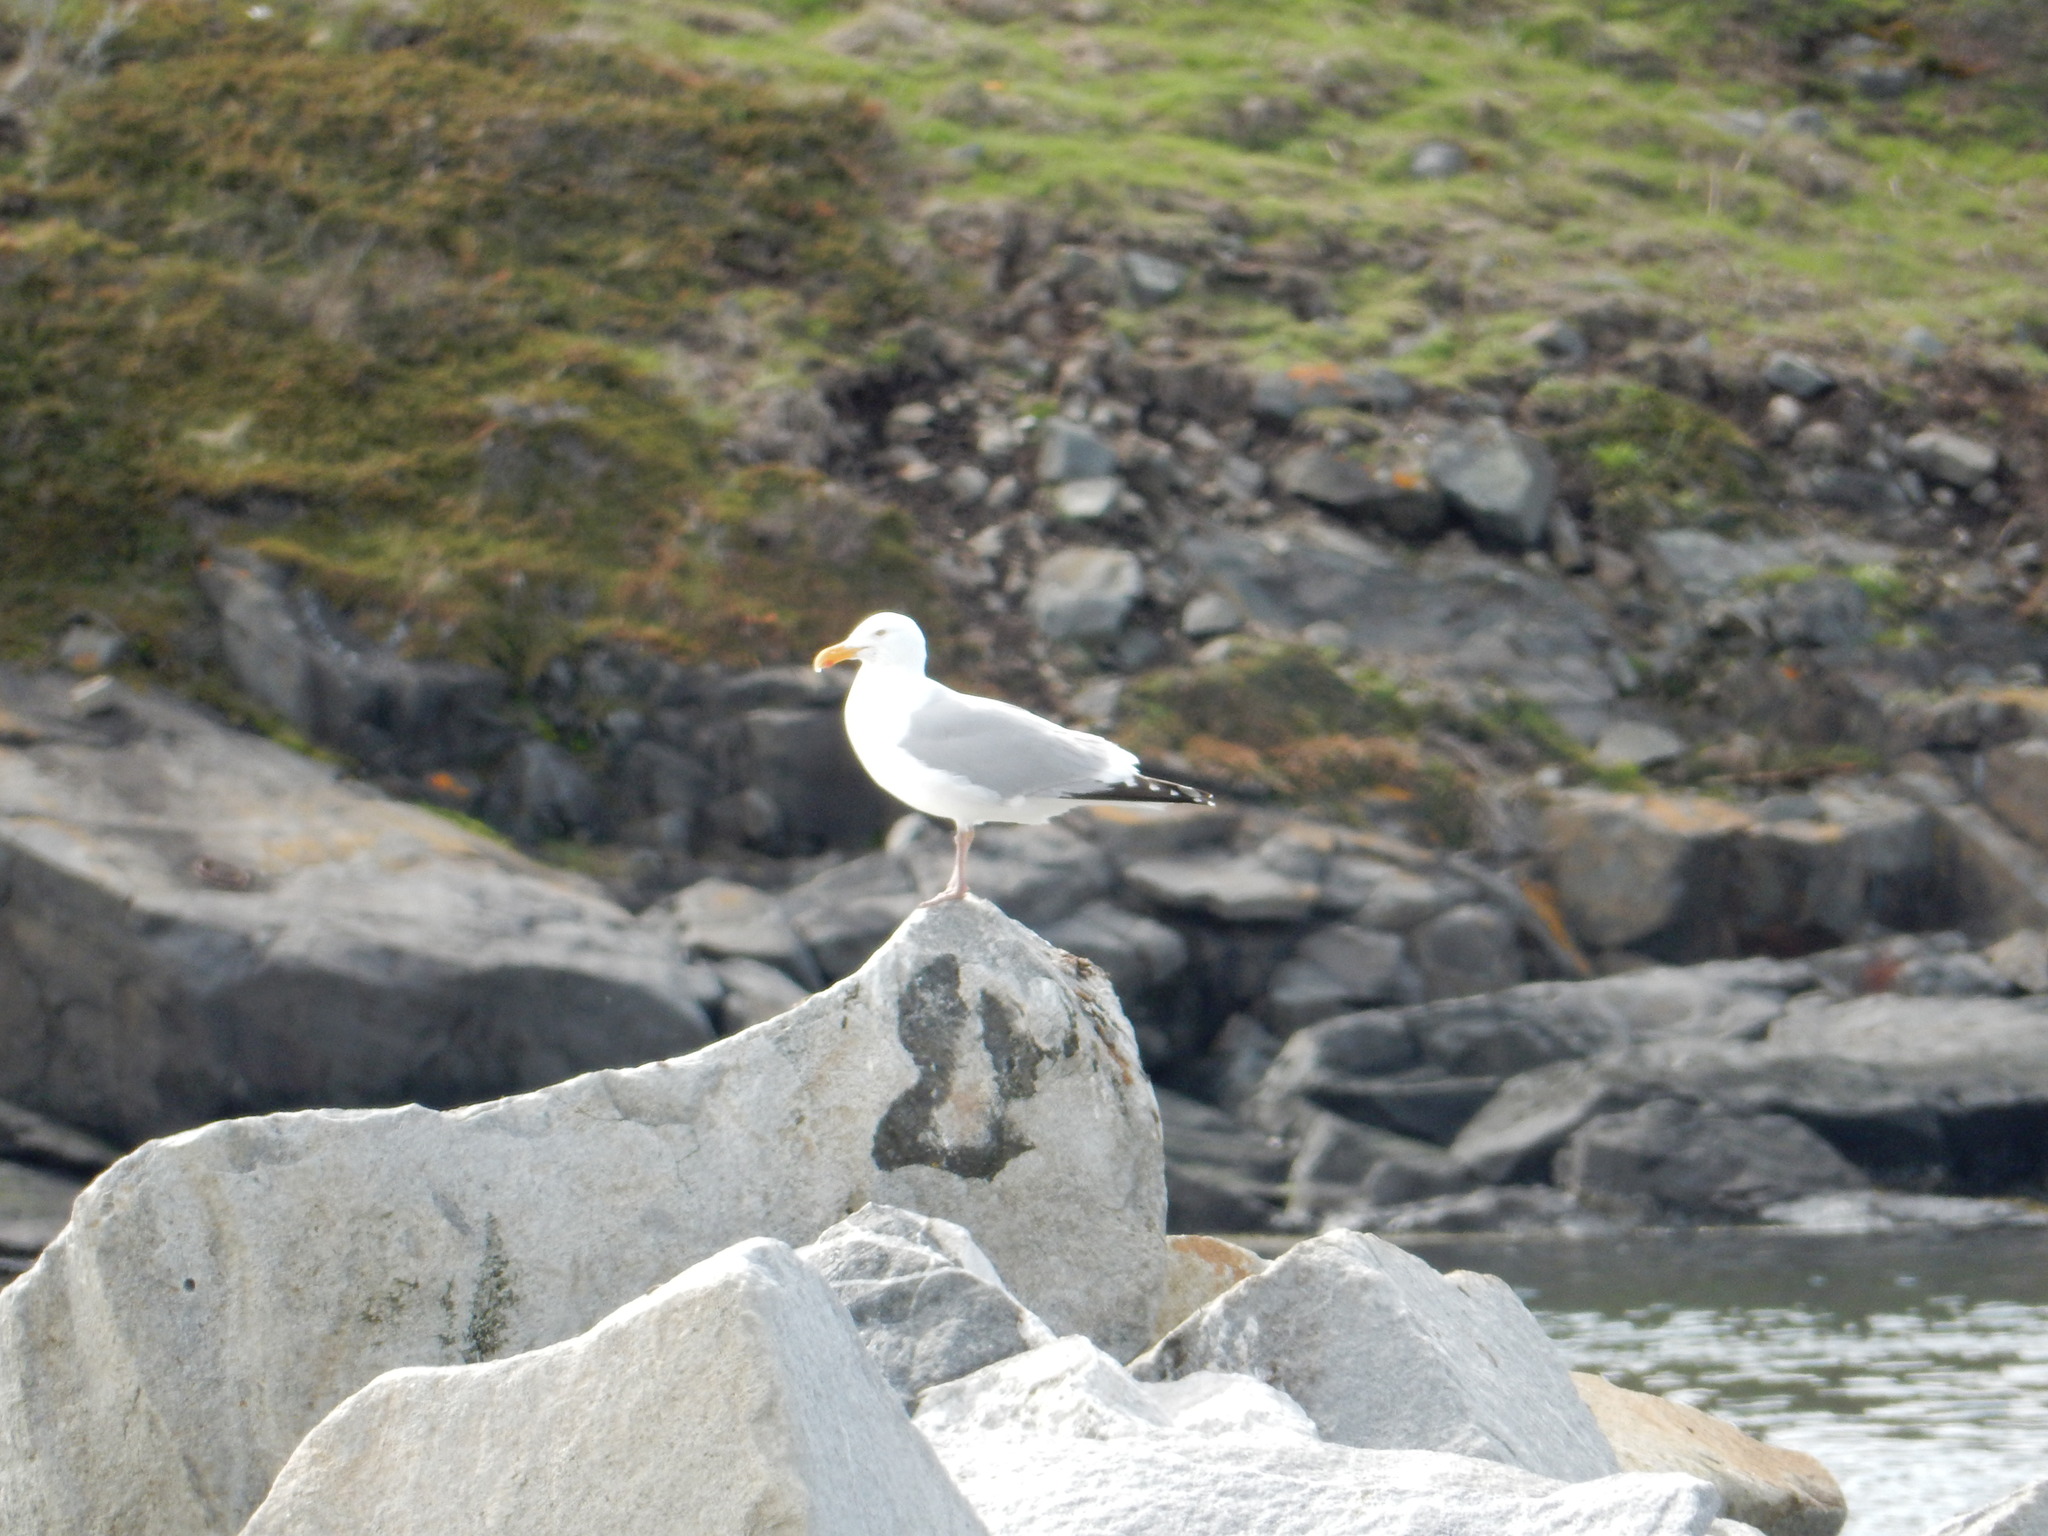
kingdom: Animalia
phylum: Chordata
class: Aves
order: Charadriiformes
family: Laridae
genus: Larus
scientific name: Larus argentatus
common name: Herring gull
